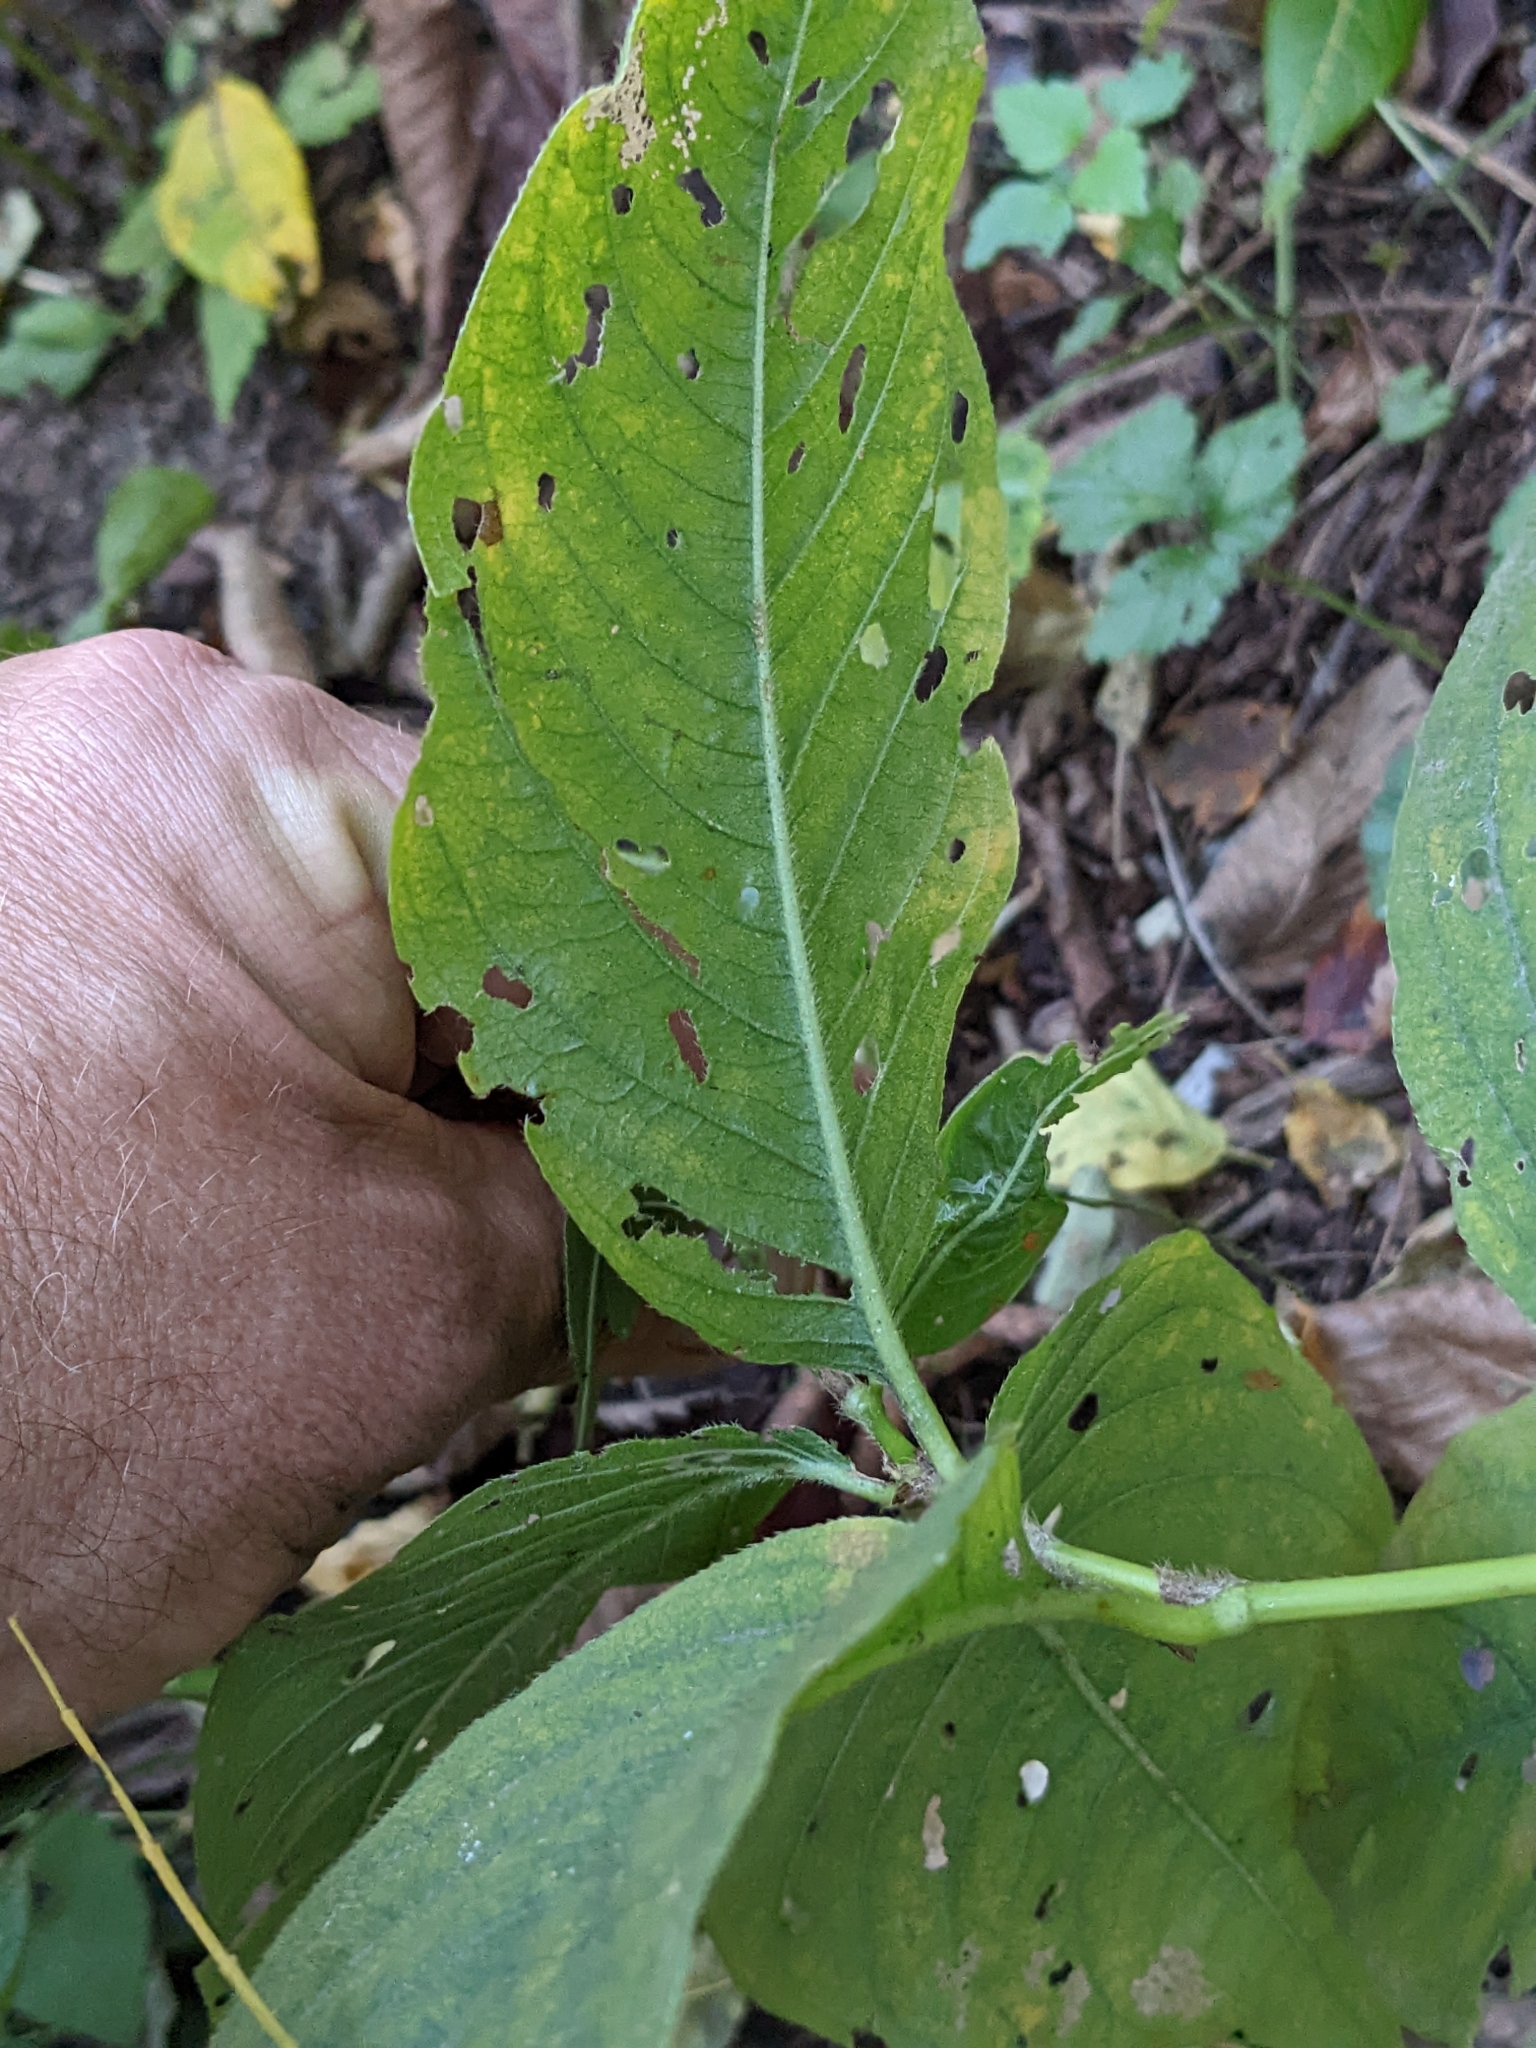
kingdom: Plantae
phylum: Tracheophyta
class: Magnoliopsida
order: Caryophyllales
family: Polygonaceae
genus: Persicaria
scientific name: Persicaria virginiana
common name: Jumpseed
